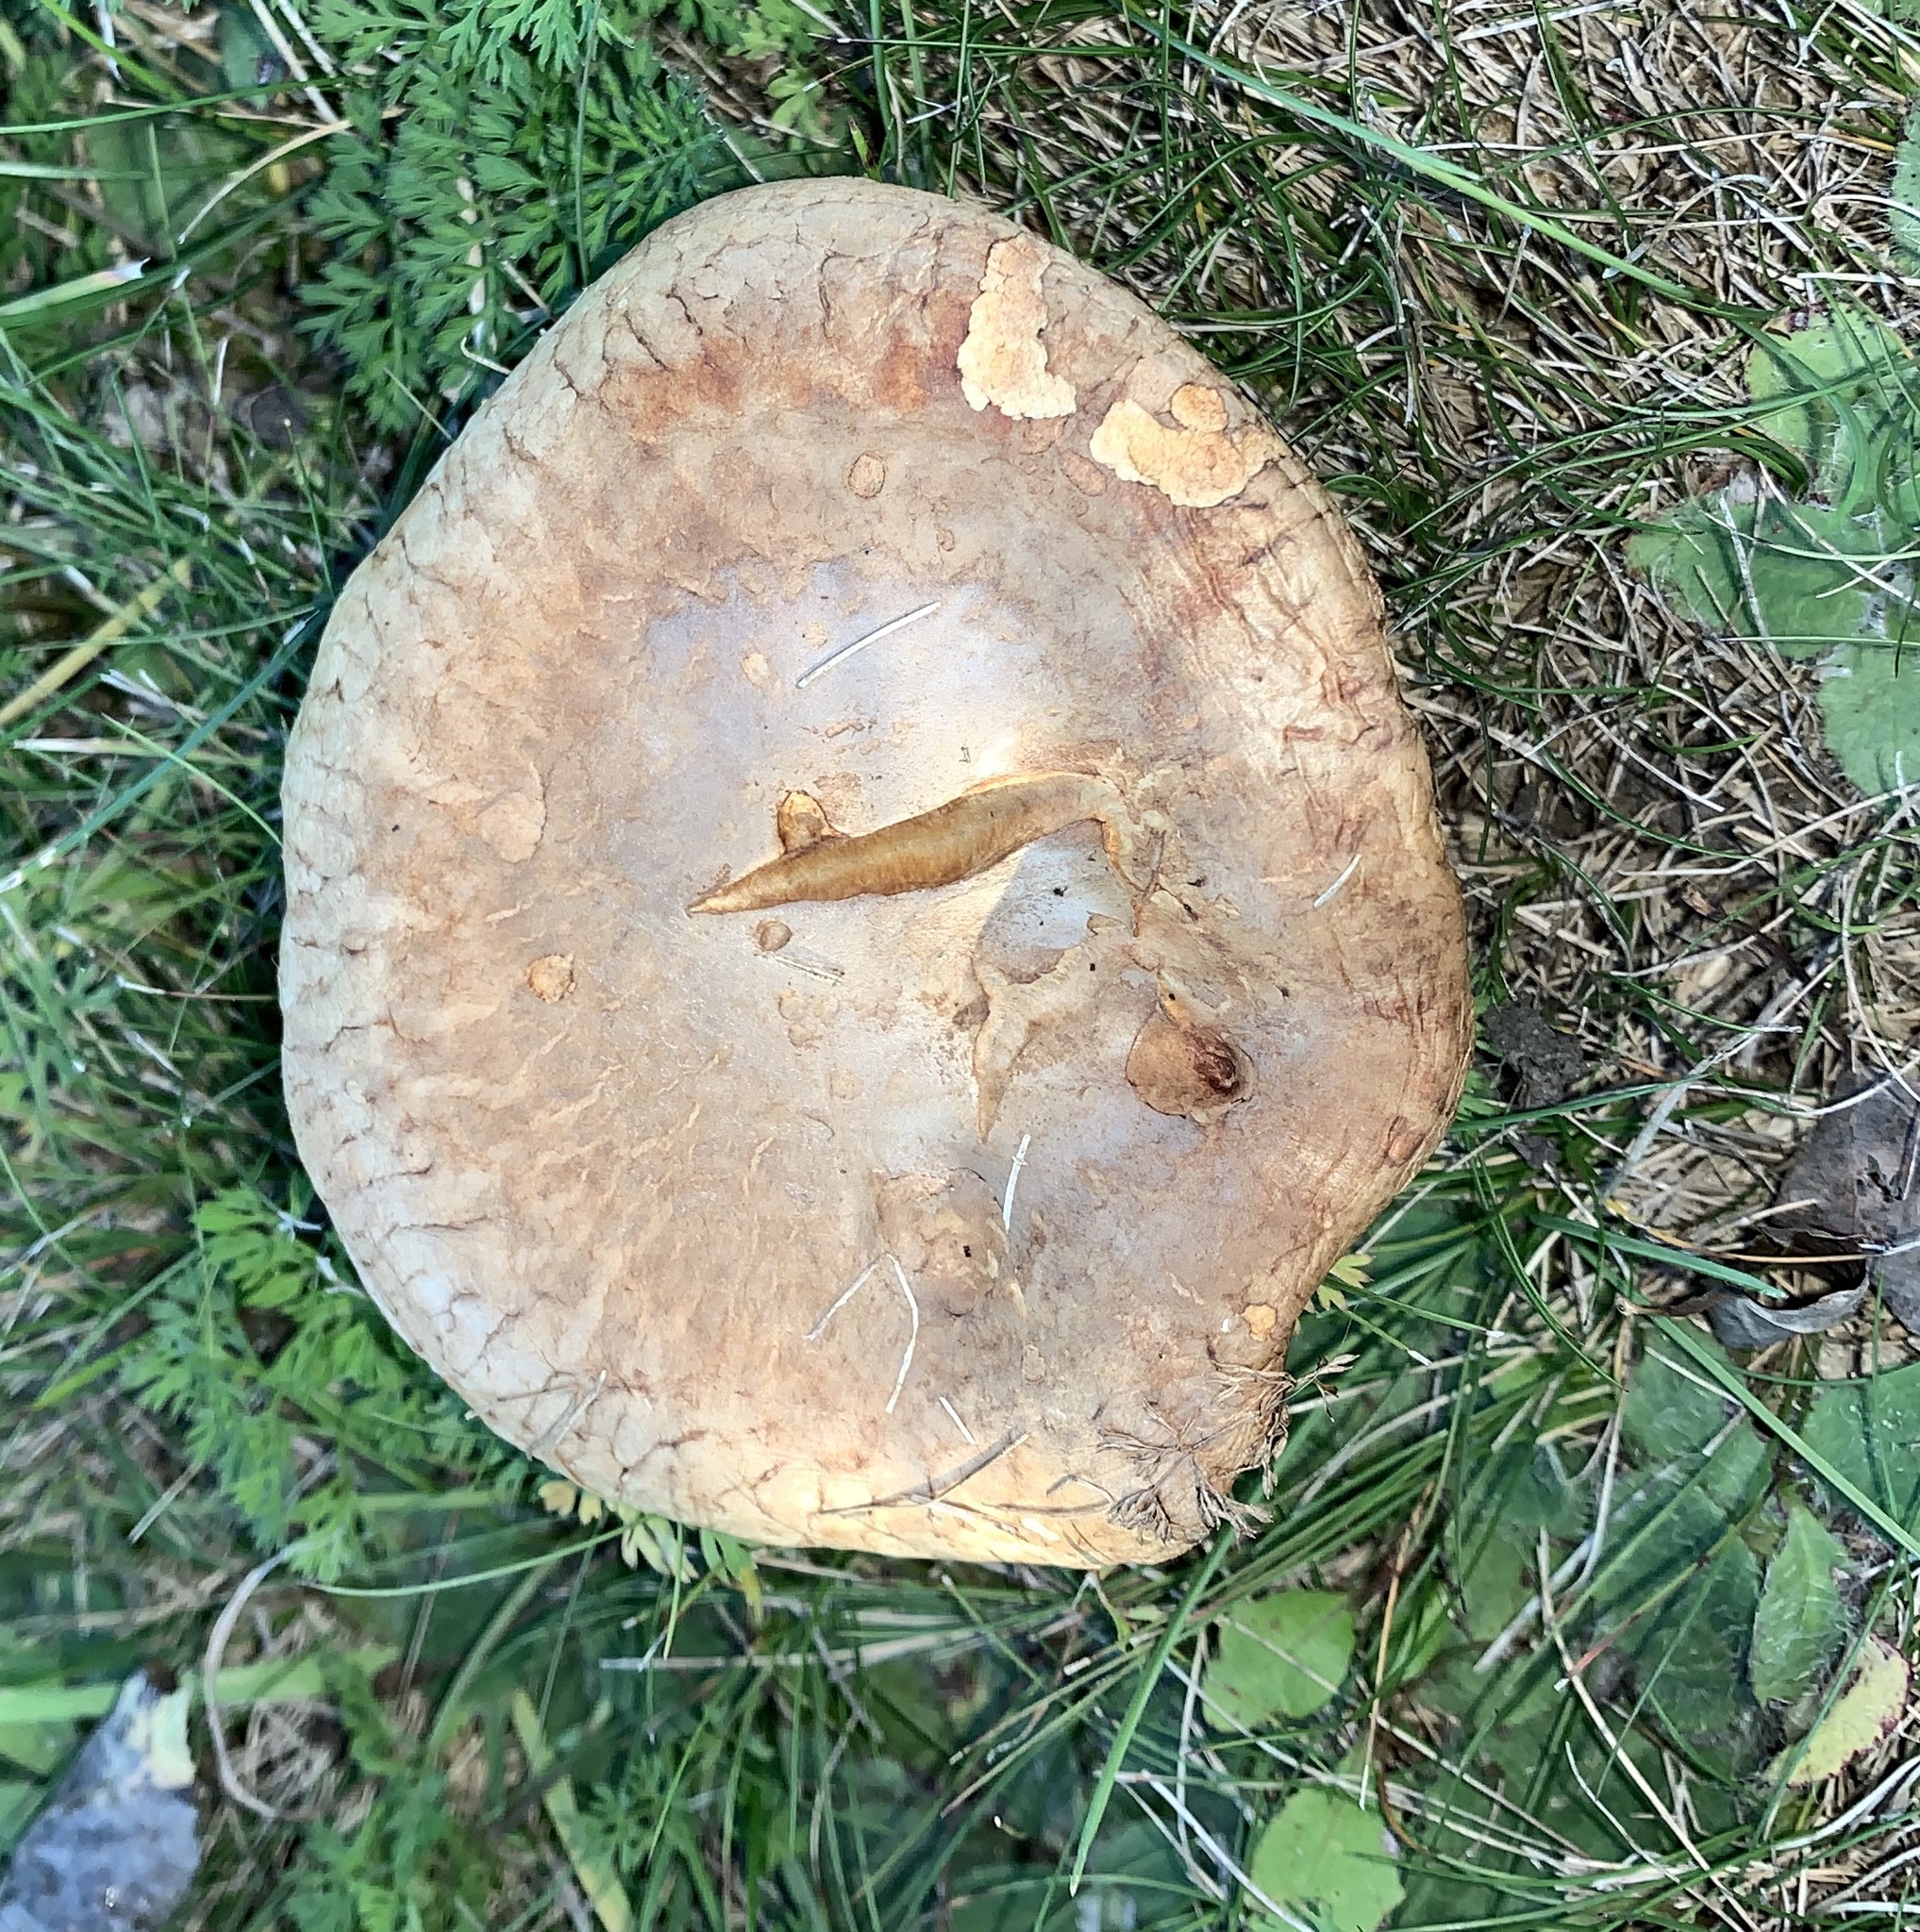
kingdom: Fungi
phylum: Basidiomycota
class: Agaricomycetes
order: Boletales
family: Paxillaceae
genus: Paxillus
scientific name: Paxillus involutus
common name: Brown roll rim
